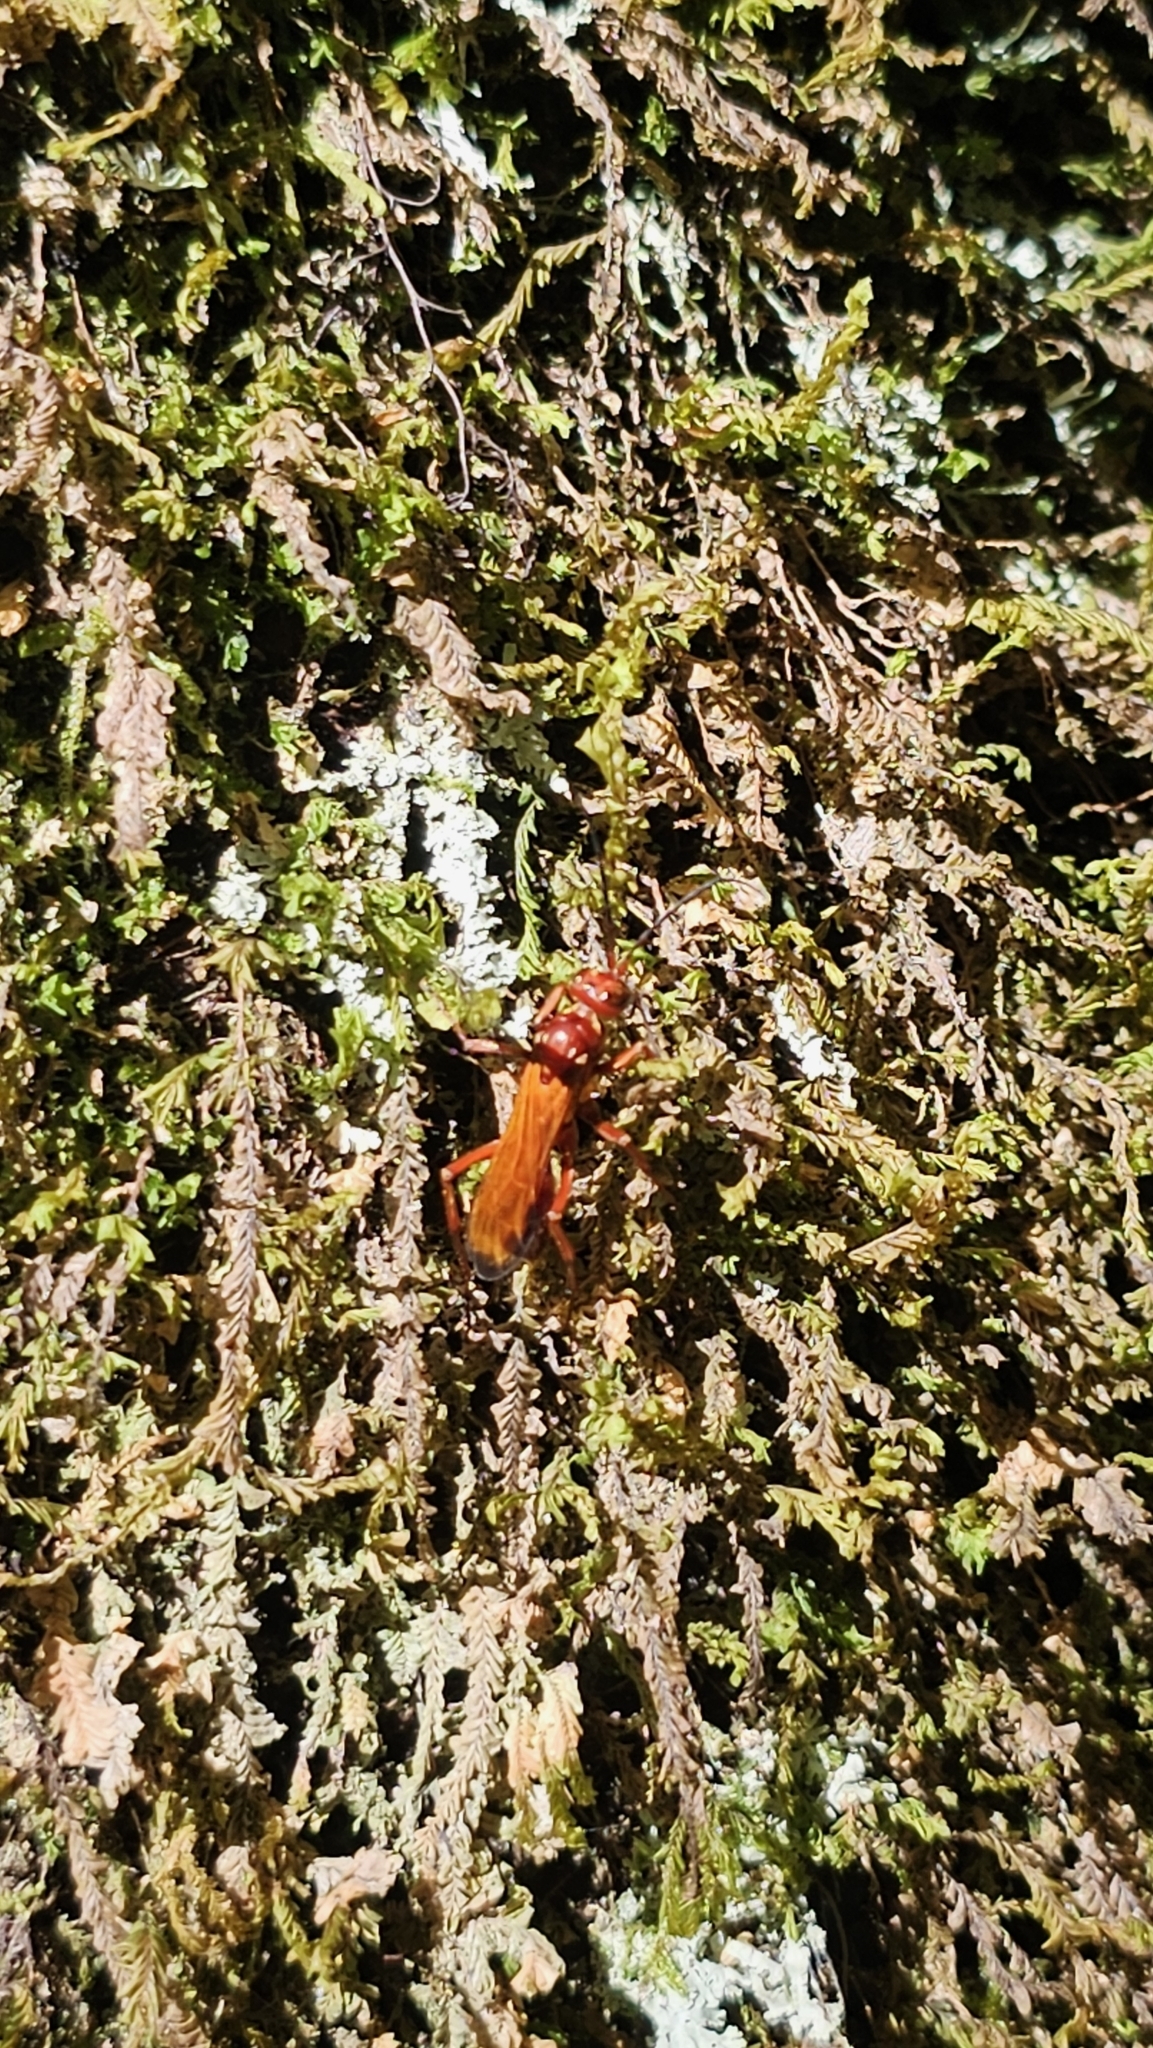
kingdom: Animalia
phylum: Arthropoda
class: Insecta
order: Hymenoptera
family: Pompilidae
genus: Sphictostethus
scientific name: Sphictostethus nitidus
